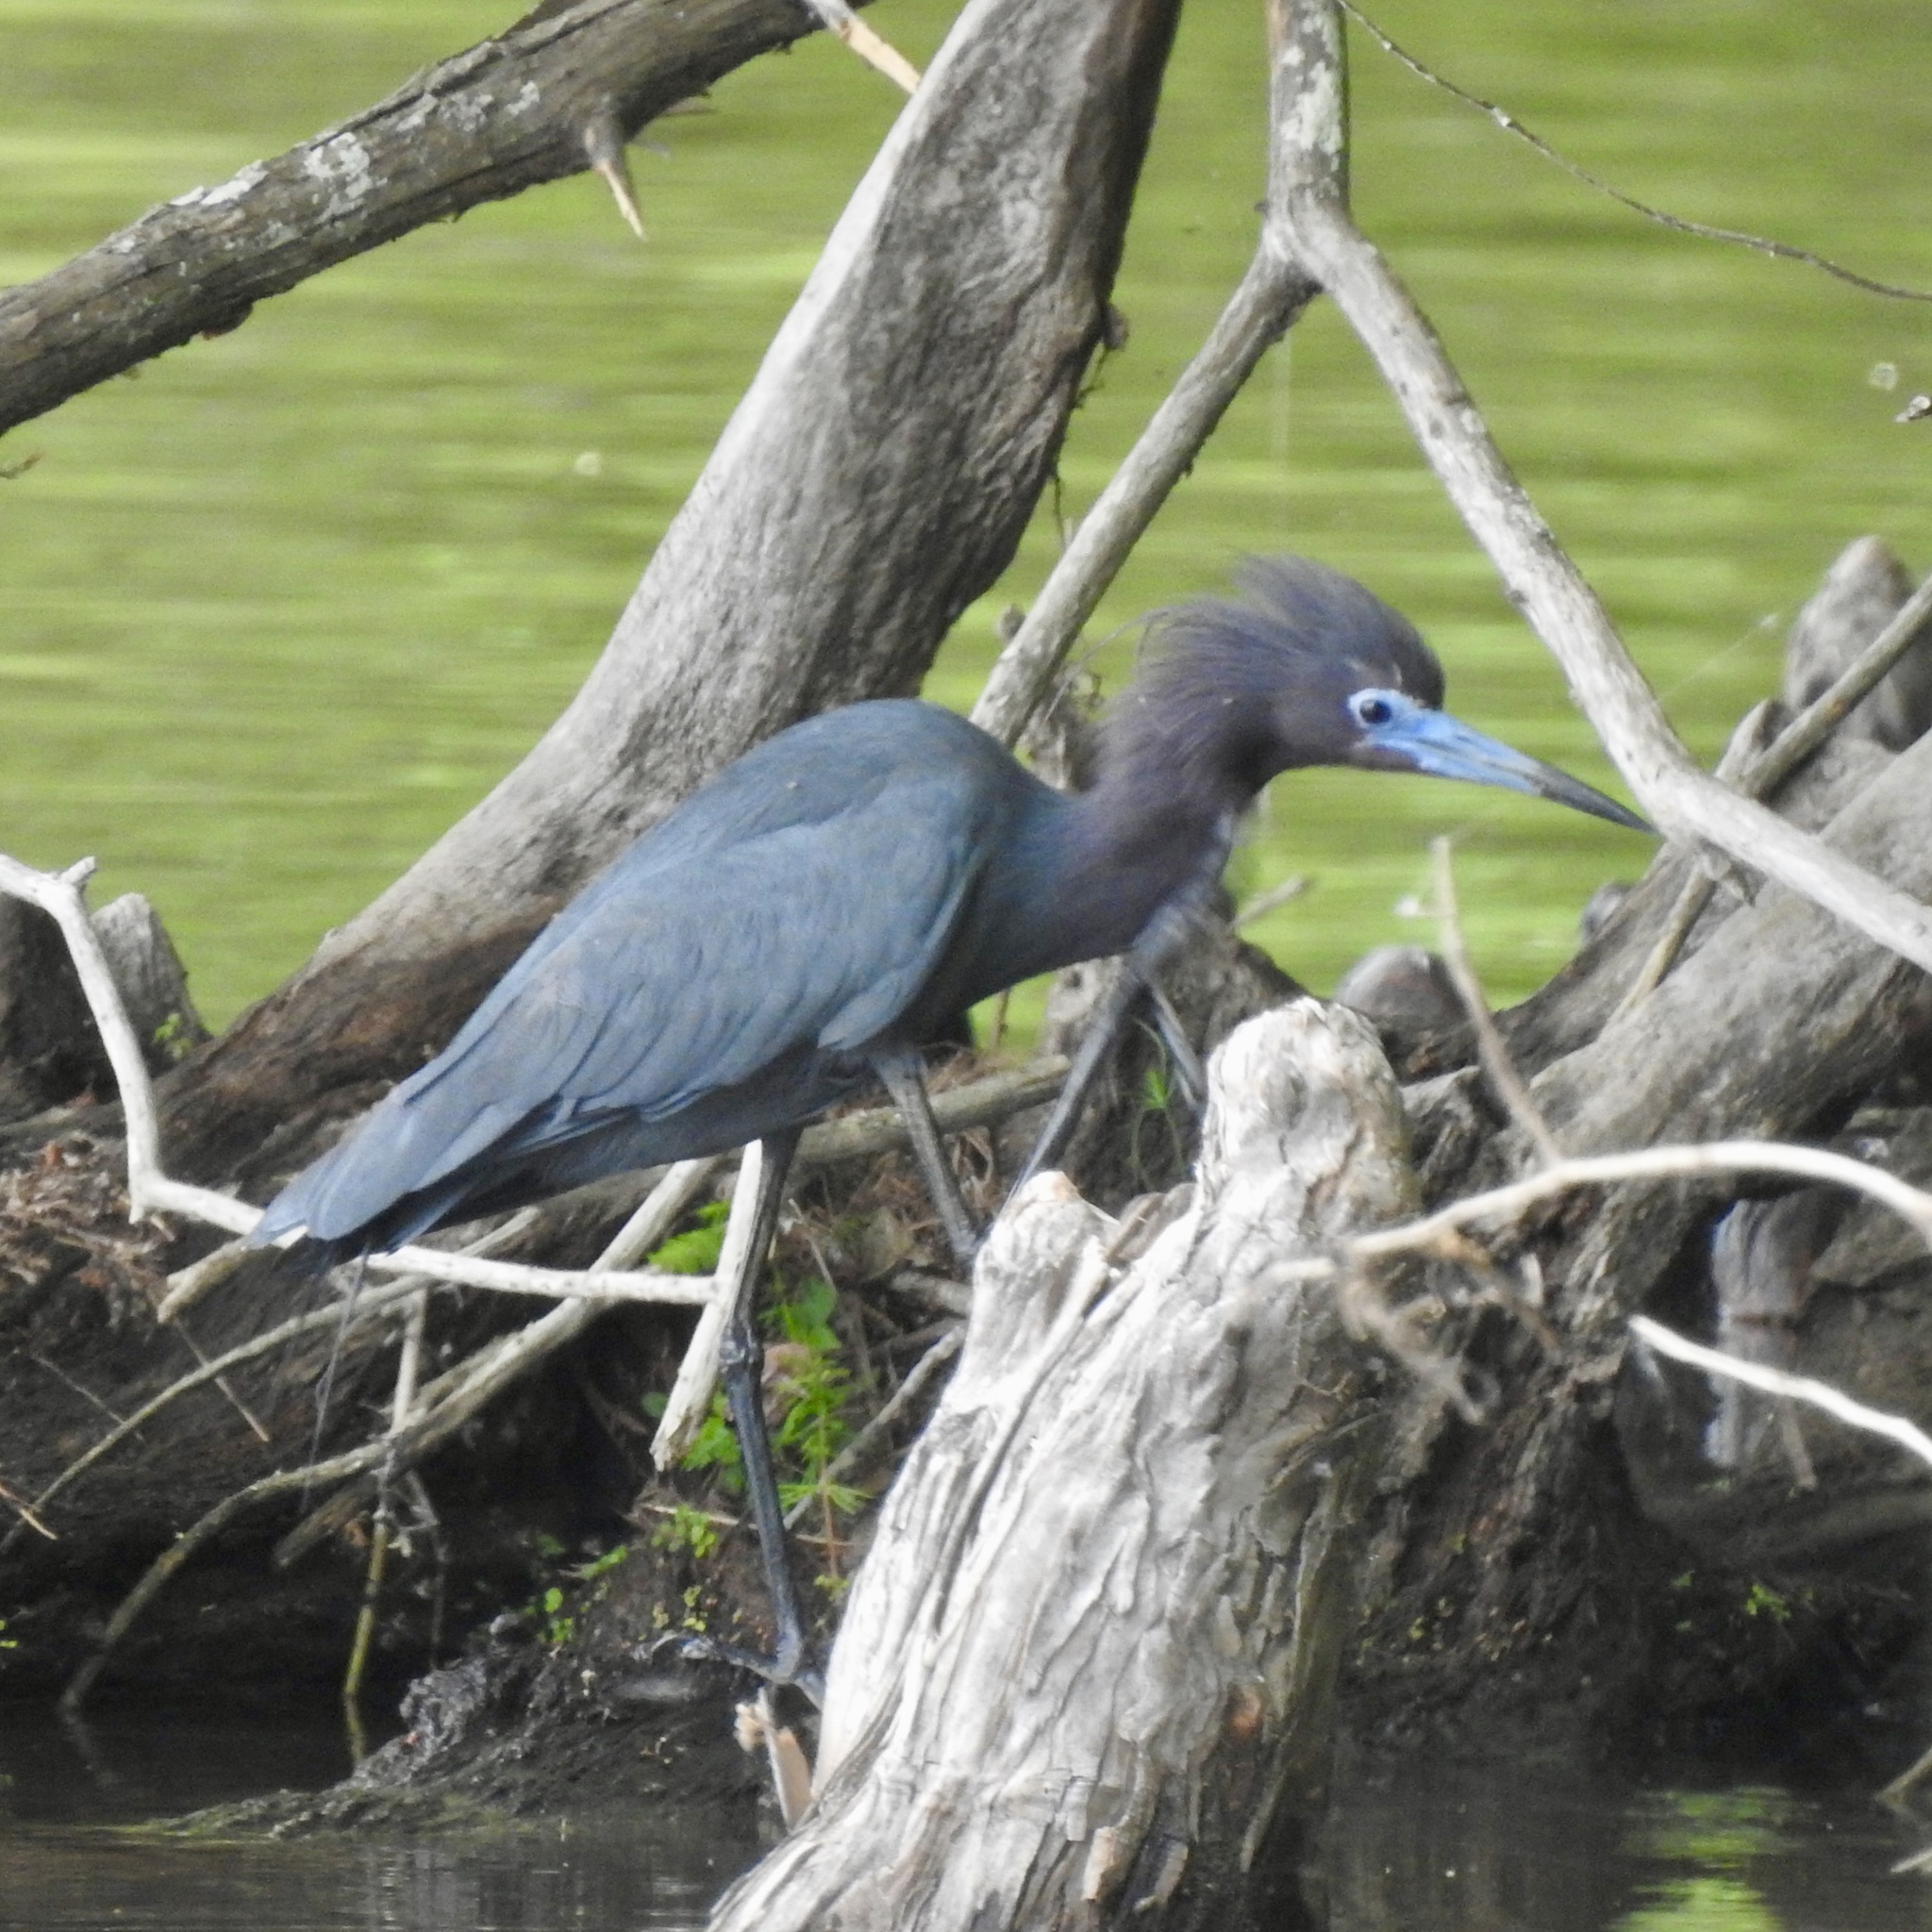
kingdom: Animalia
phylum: Chordata
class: Aves
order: Pelecaniformes
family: Ardeidae
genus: Egretta
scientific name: Egretta caerulea
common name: Little blue heron
